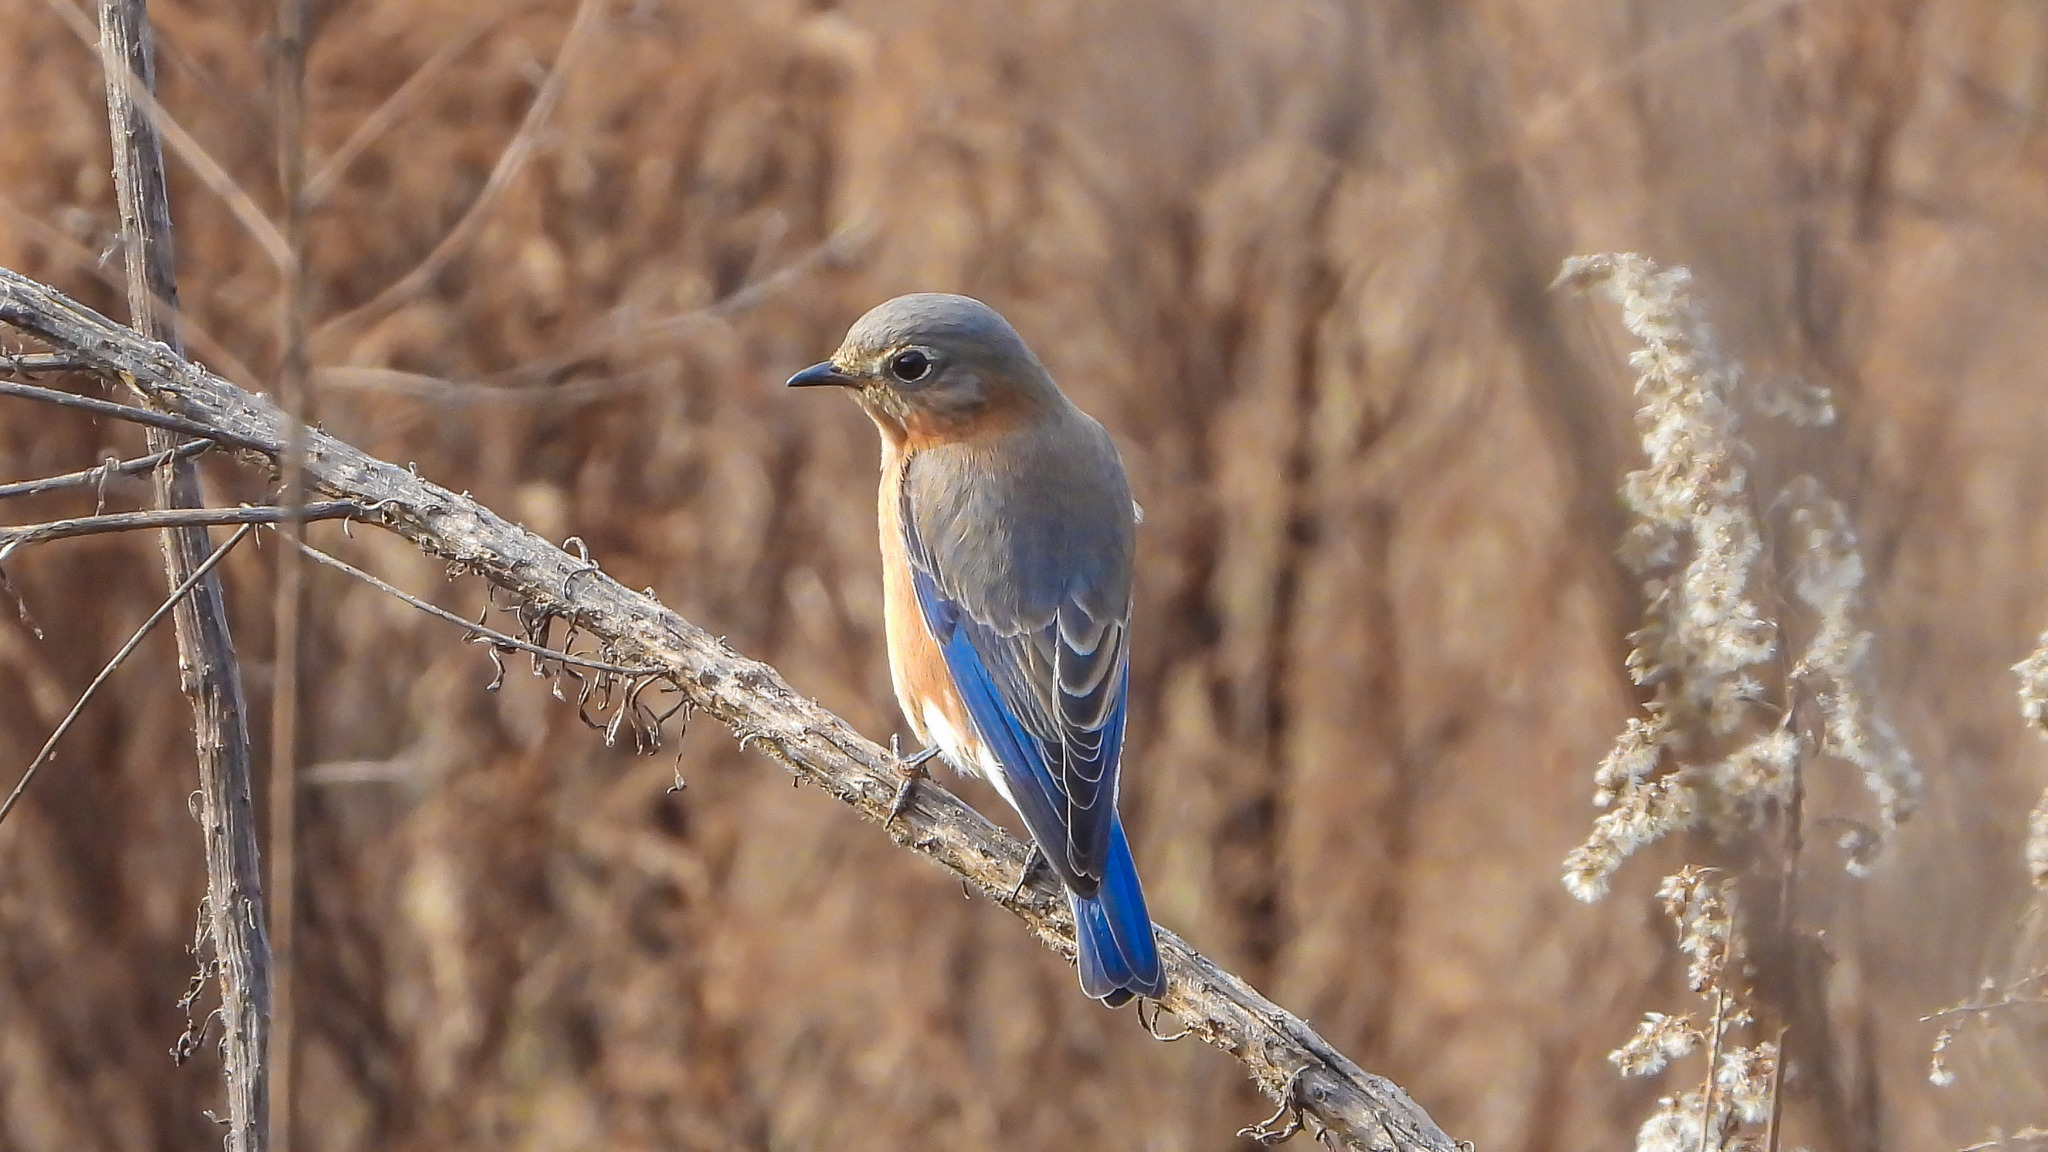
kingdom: Animalia
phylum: Chordata
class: Aves
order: Passeriformes
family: Turdidae
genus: Sialia
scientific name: Sialia sialis
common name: Eastern bluebird
